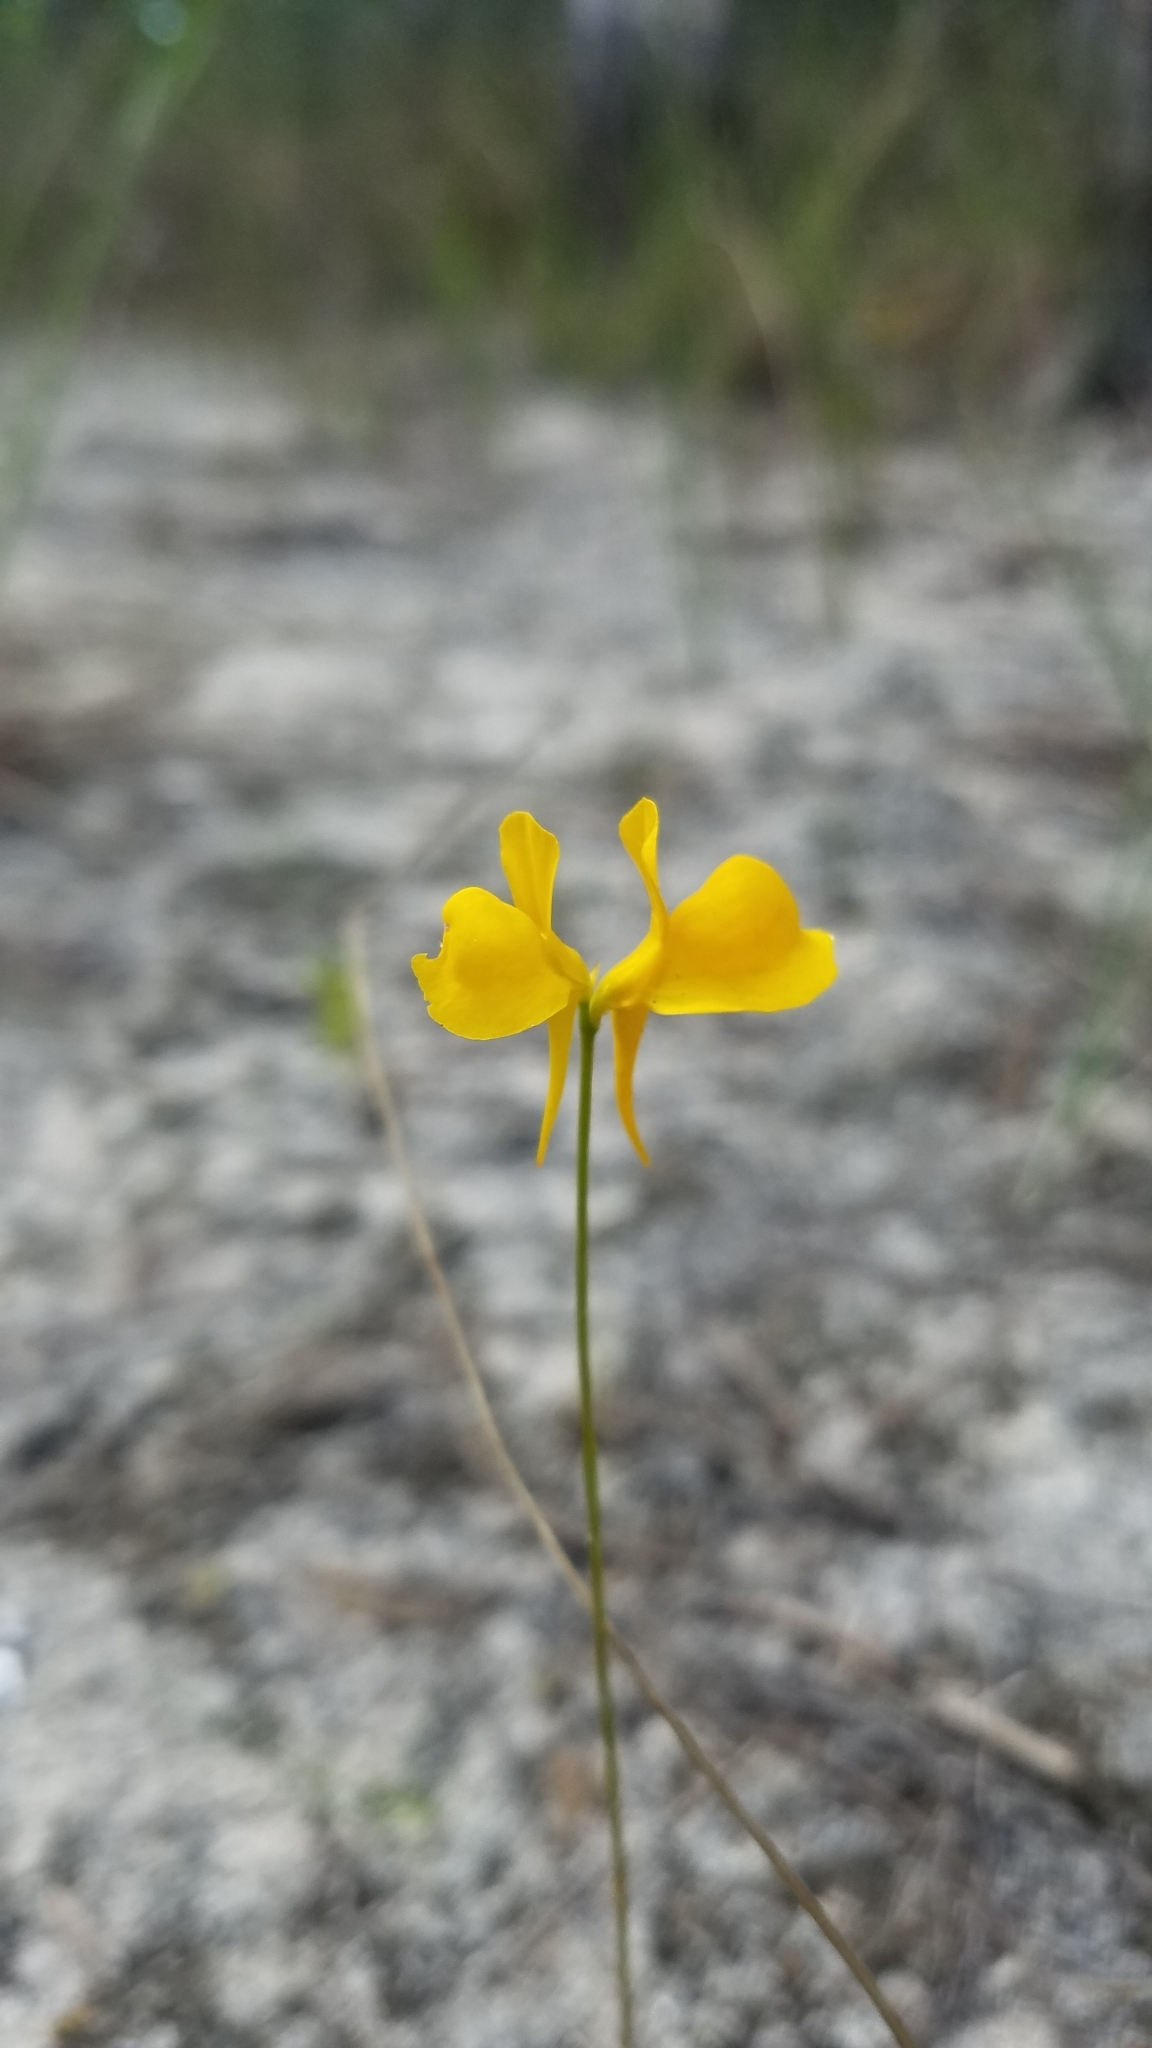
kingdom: Plantae
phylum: Tracheophyta
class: Magnoliopsida
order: Lamiales
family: Lentibulariaceae
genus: Utricularia
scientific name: Utricularia cornuta
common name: Horned bladderwort
